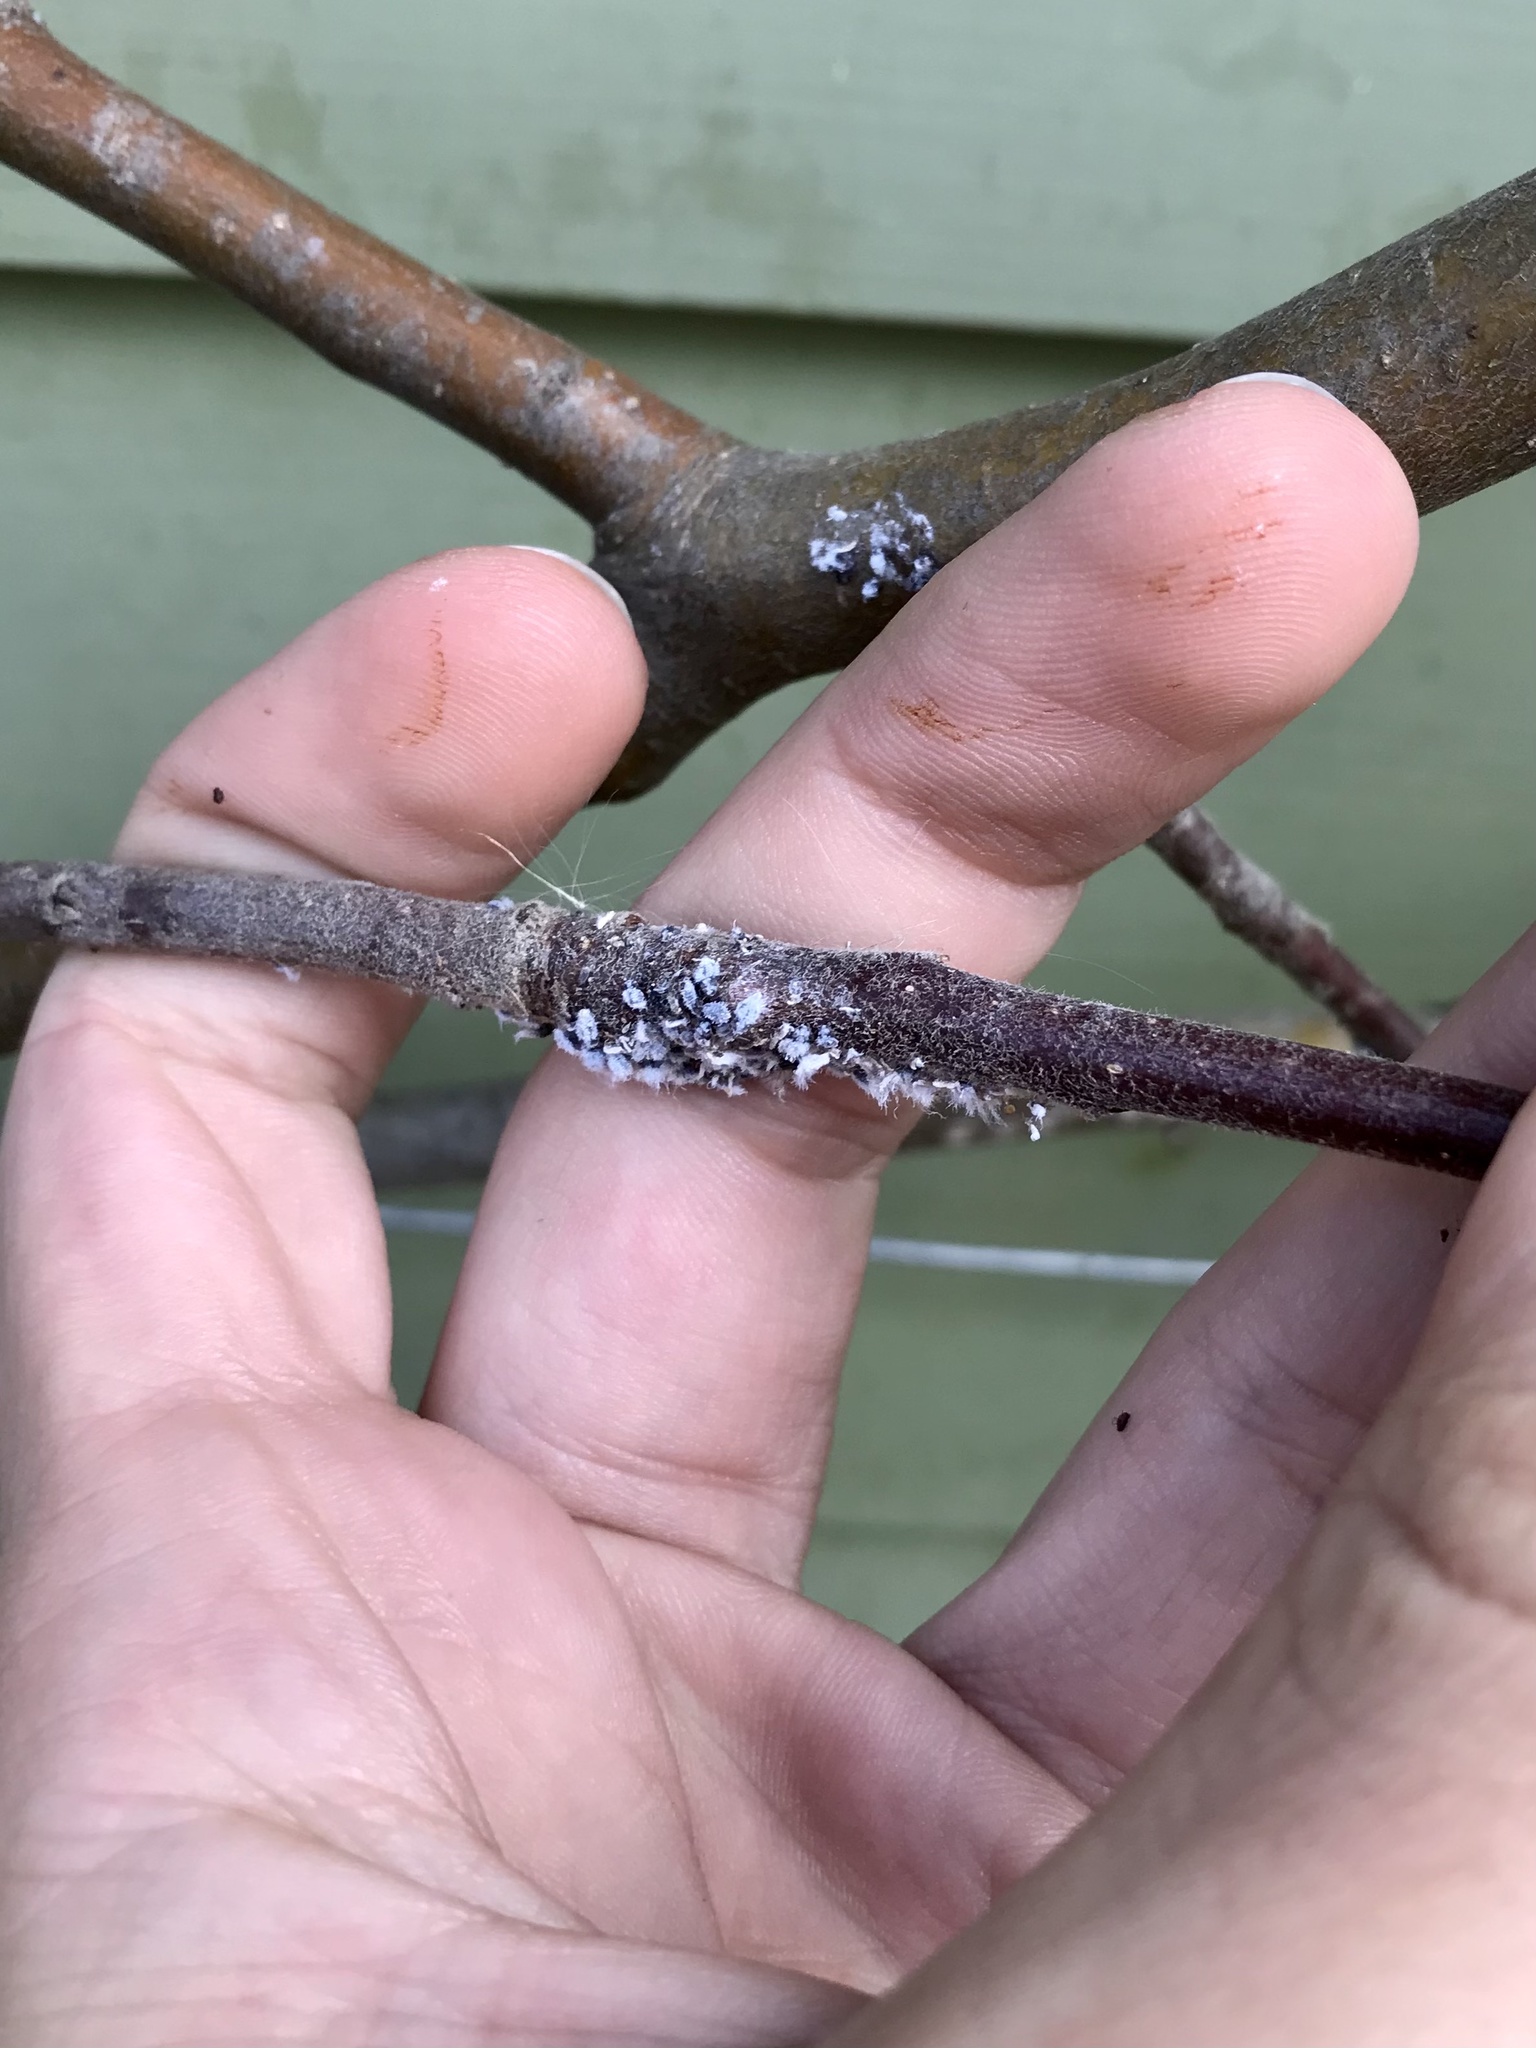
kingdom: Animalia
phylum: Arthropoda
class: Insecta
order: Hemiptera
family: Aphididae
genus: Eriosoma
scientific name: Eriosoma lanigerum
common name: Woolly apple aphid
